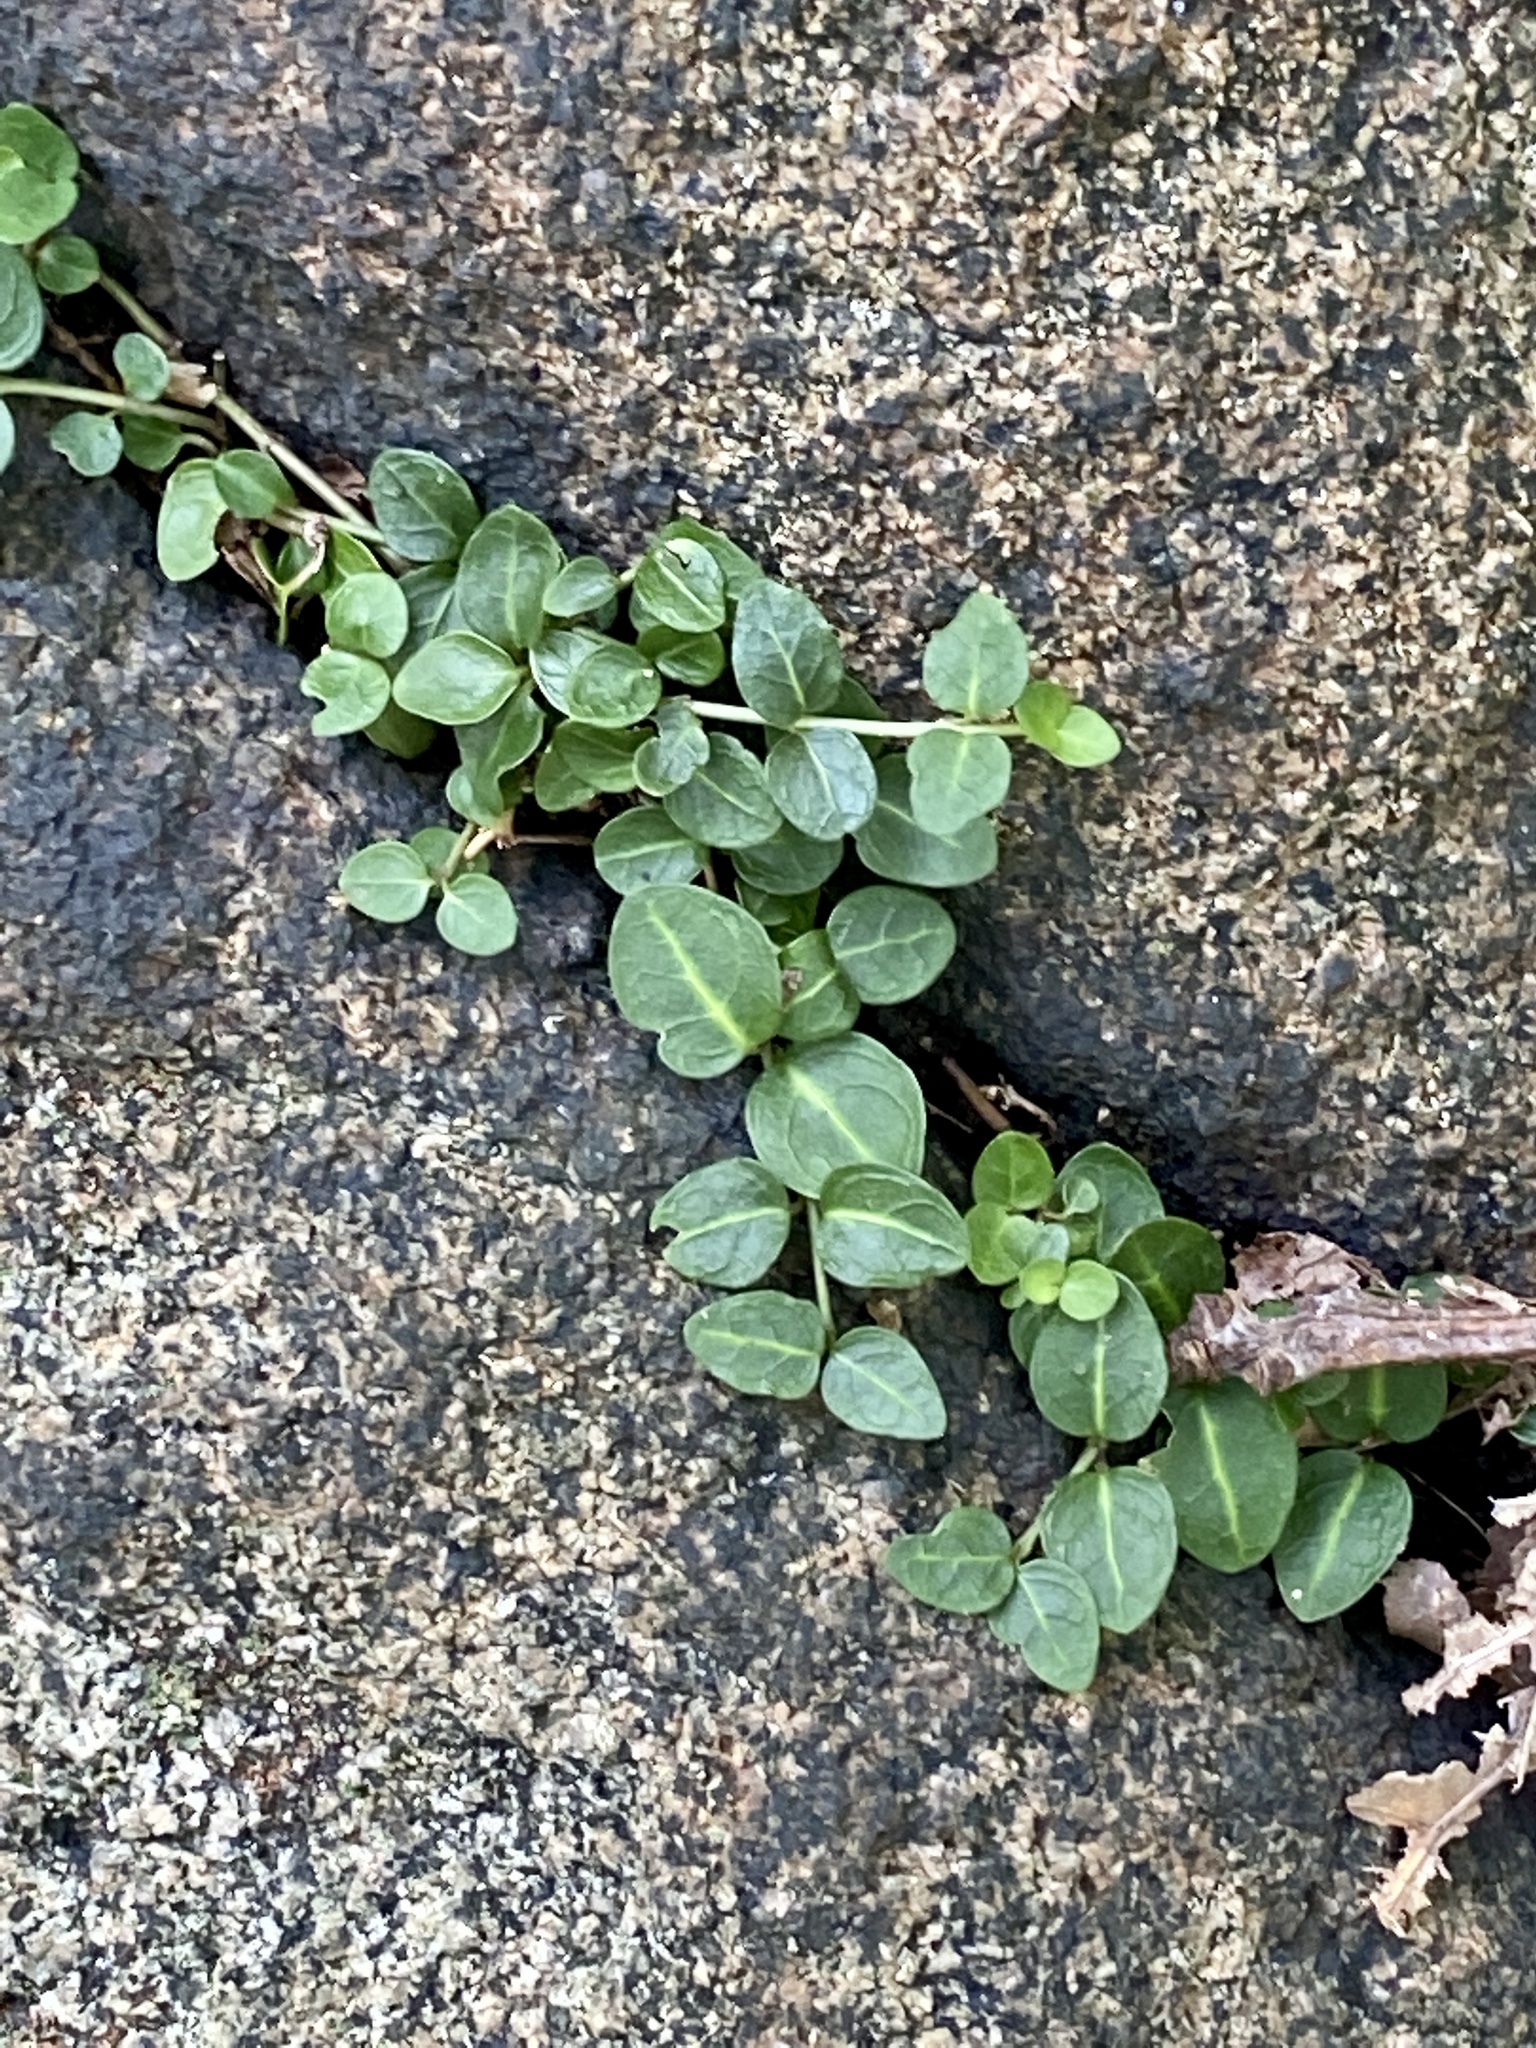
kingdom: Plantae
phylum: Tracheophyta
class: Magnoliopsida
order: Gentianales
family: Rubiaceae
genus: Mitchella
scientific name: Mitchella repens
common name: Partridge-berry
